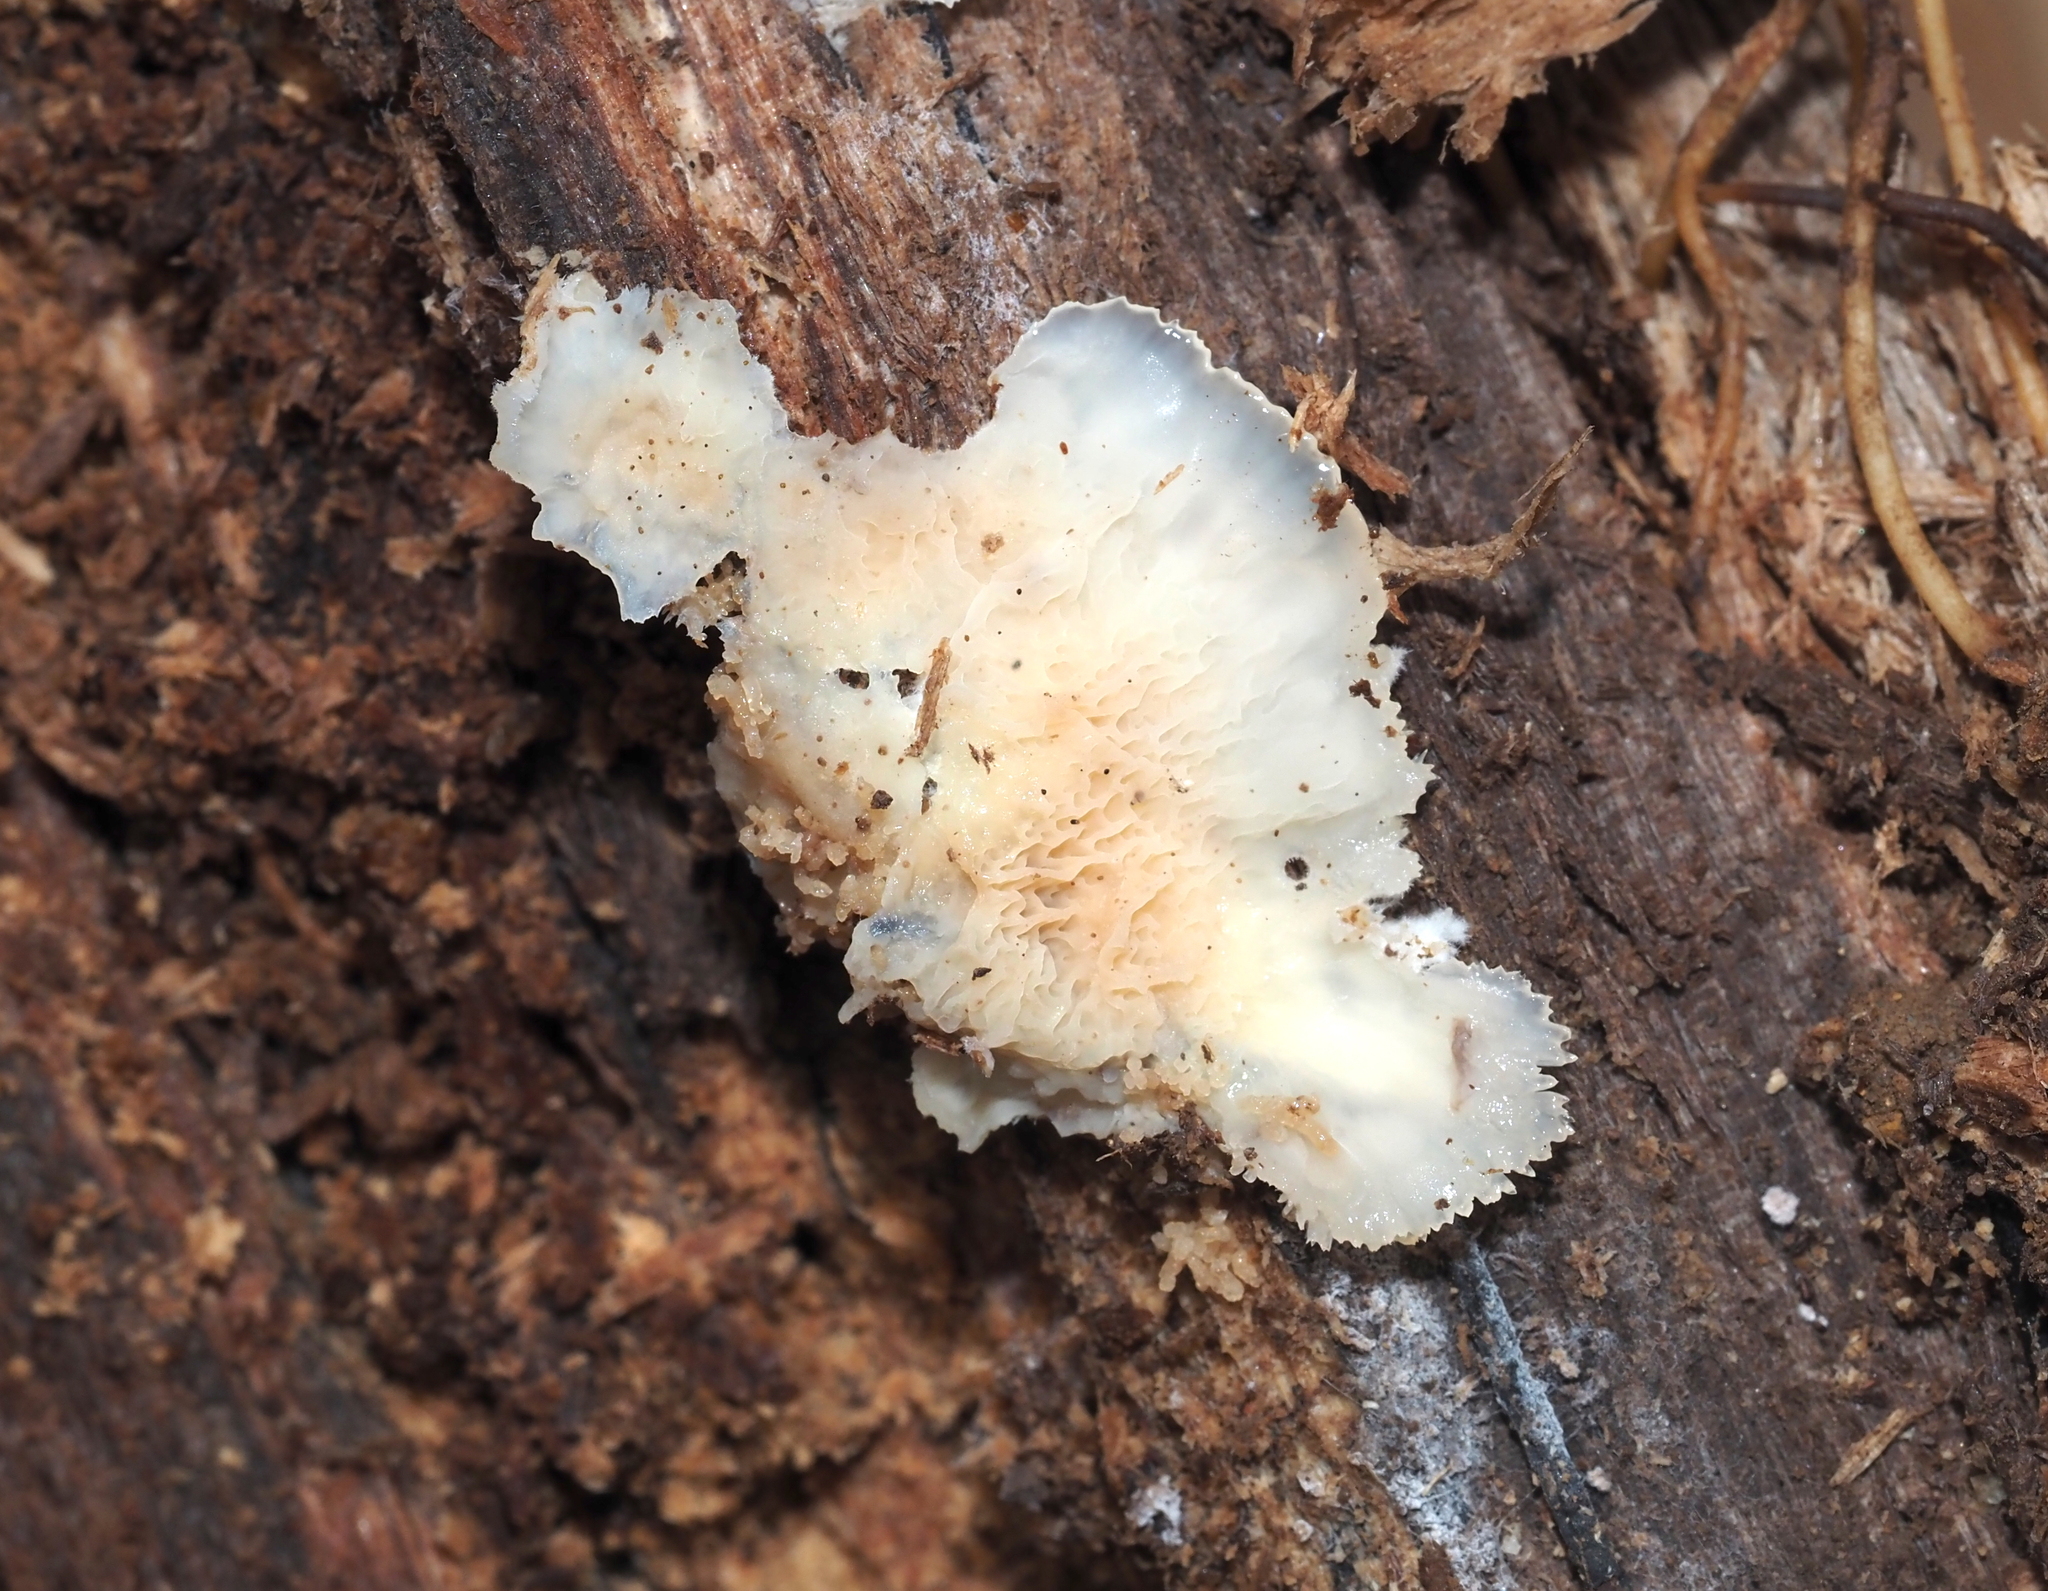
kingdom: Fungi
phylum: Basidiomycota
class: Agaricomycetes
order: Polyporales
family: Meruliaceae
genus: Phlebia
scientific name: Phlebia tremellosa
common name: Jelly rot
